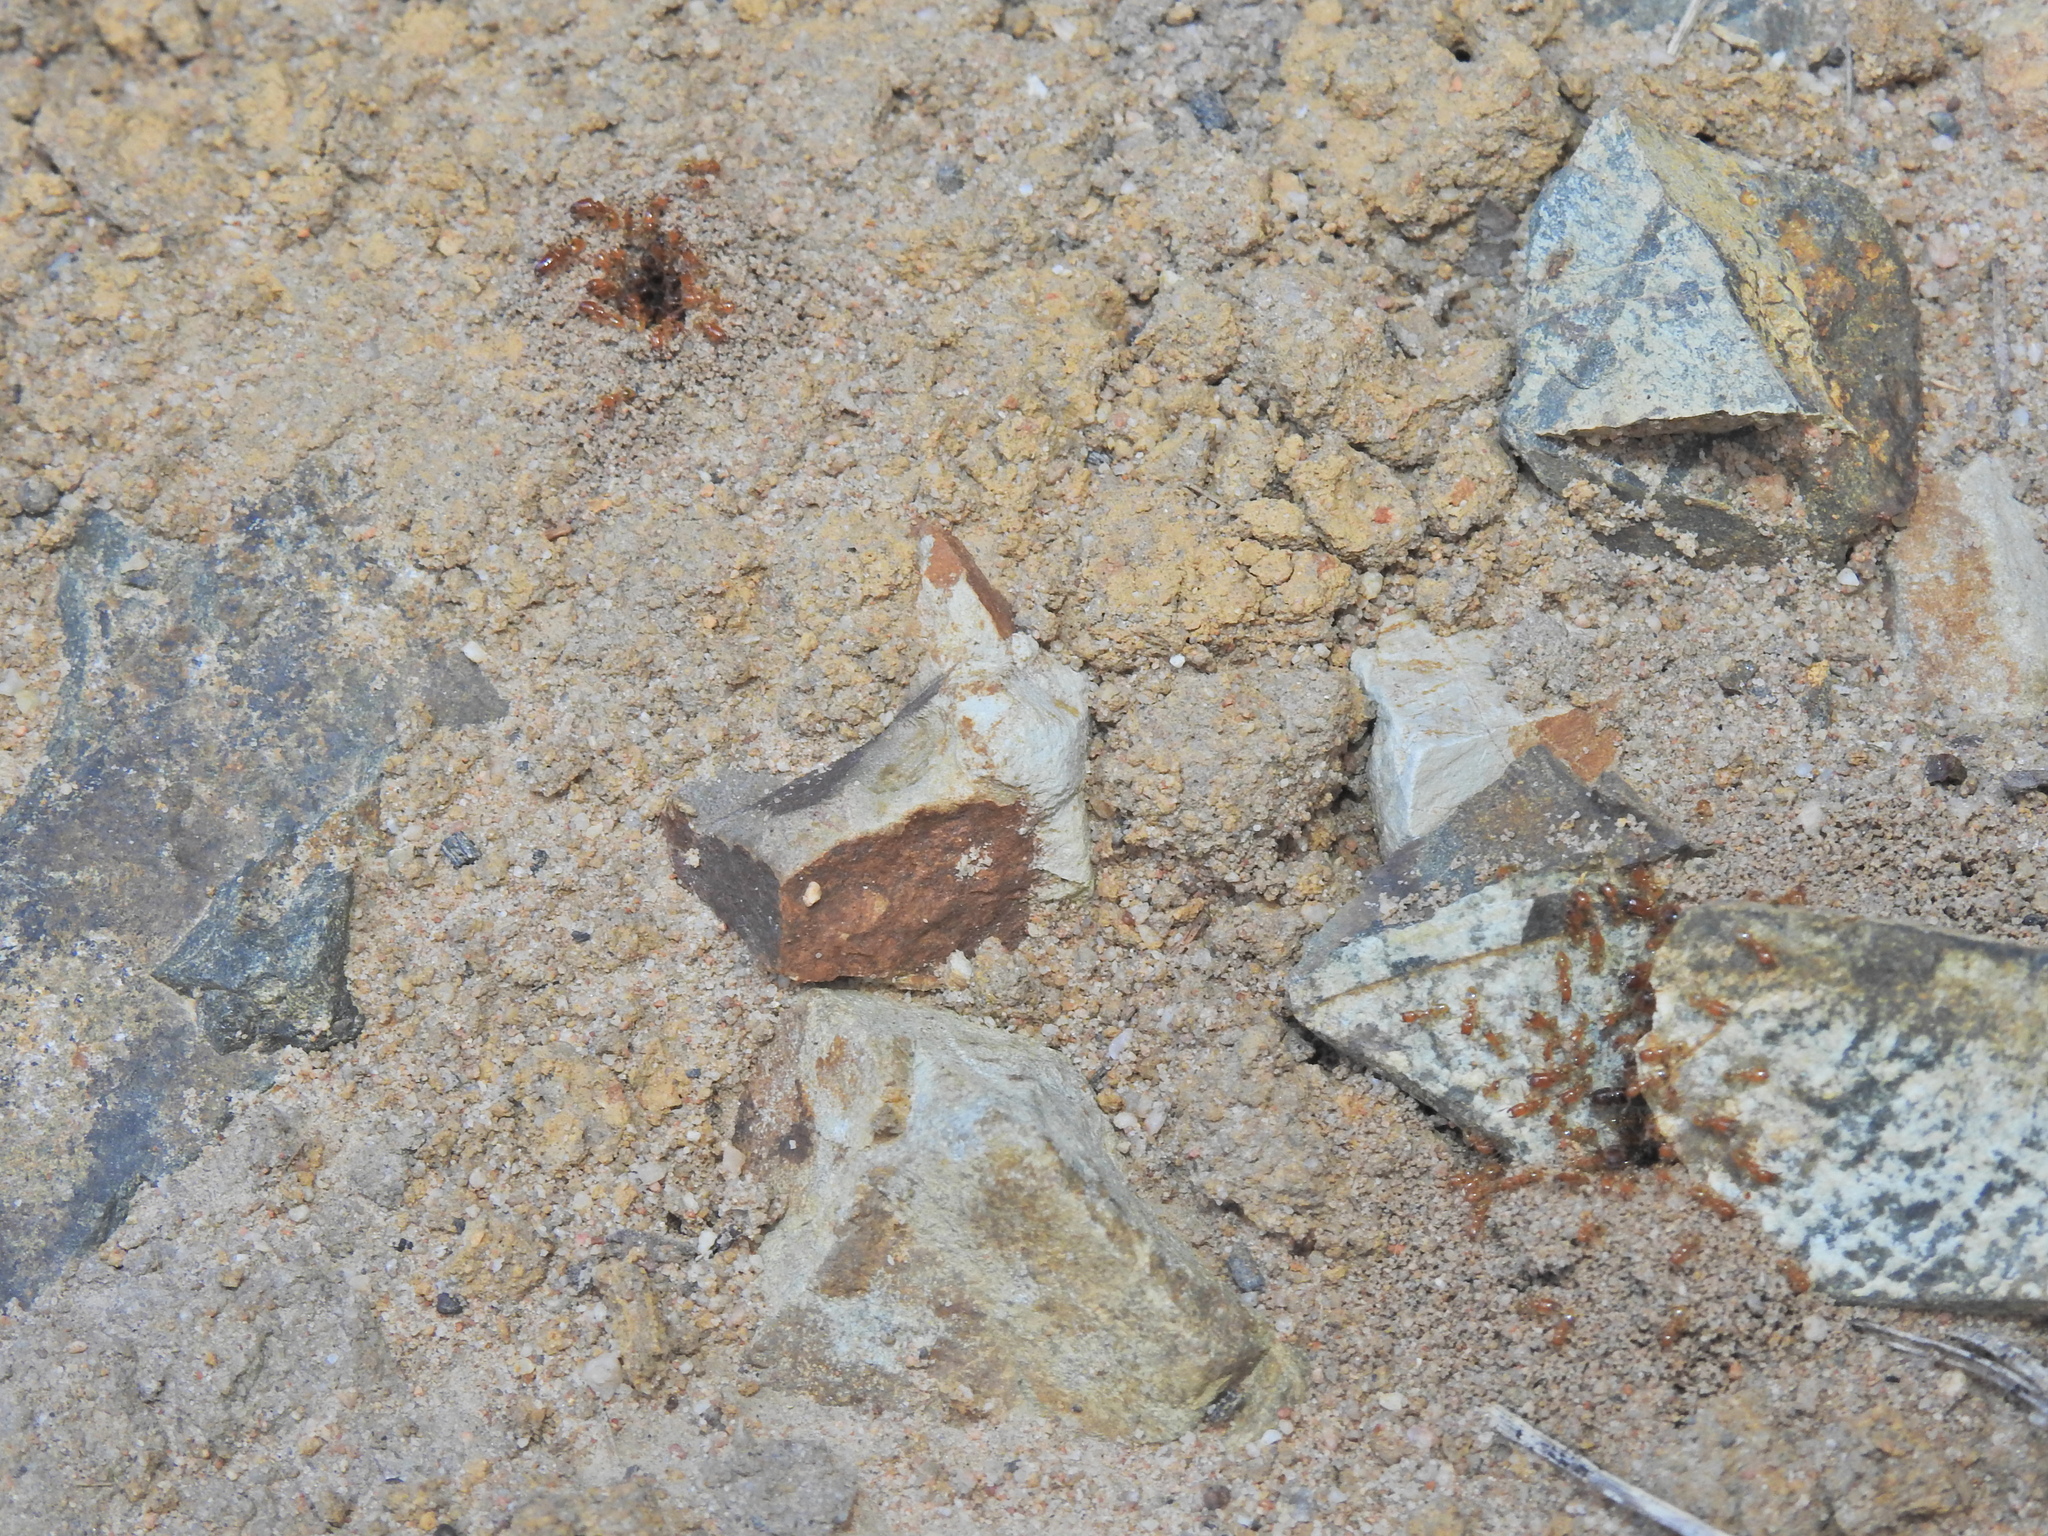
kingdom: Animalia
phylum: Arthropoda
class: Insecta
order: Hymenoptera
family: Formicidae
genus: Pheidole
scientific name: Pheidole
